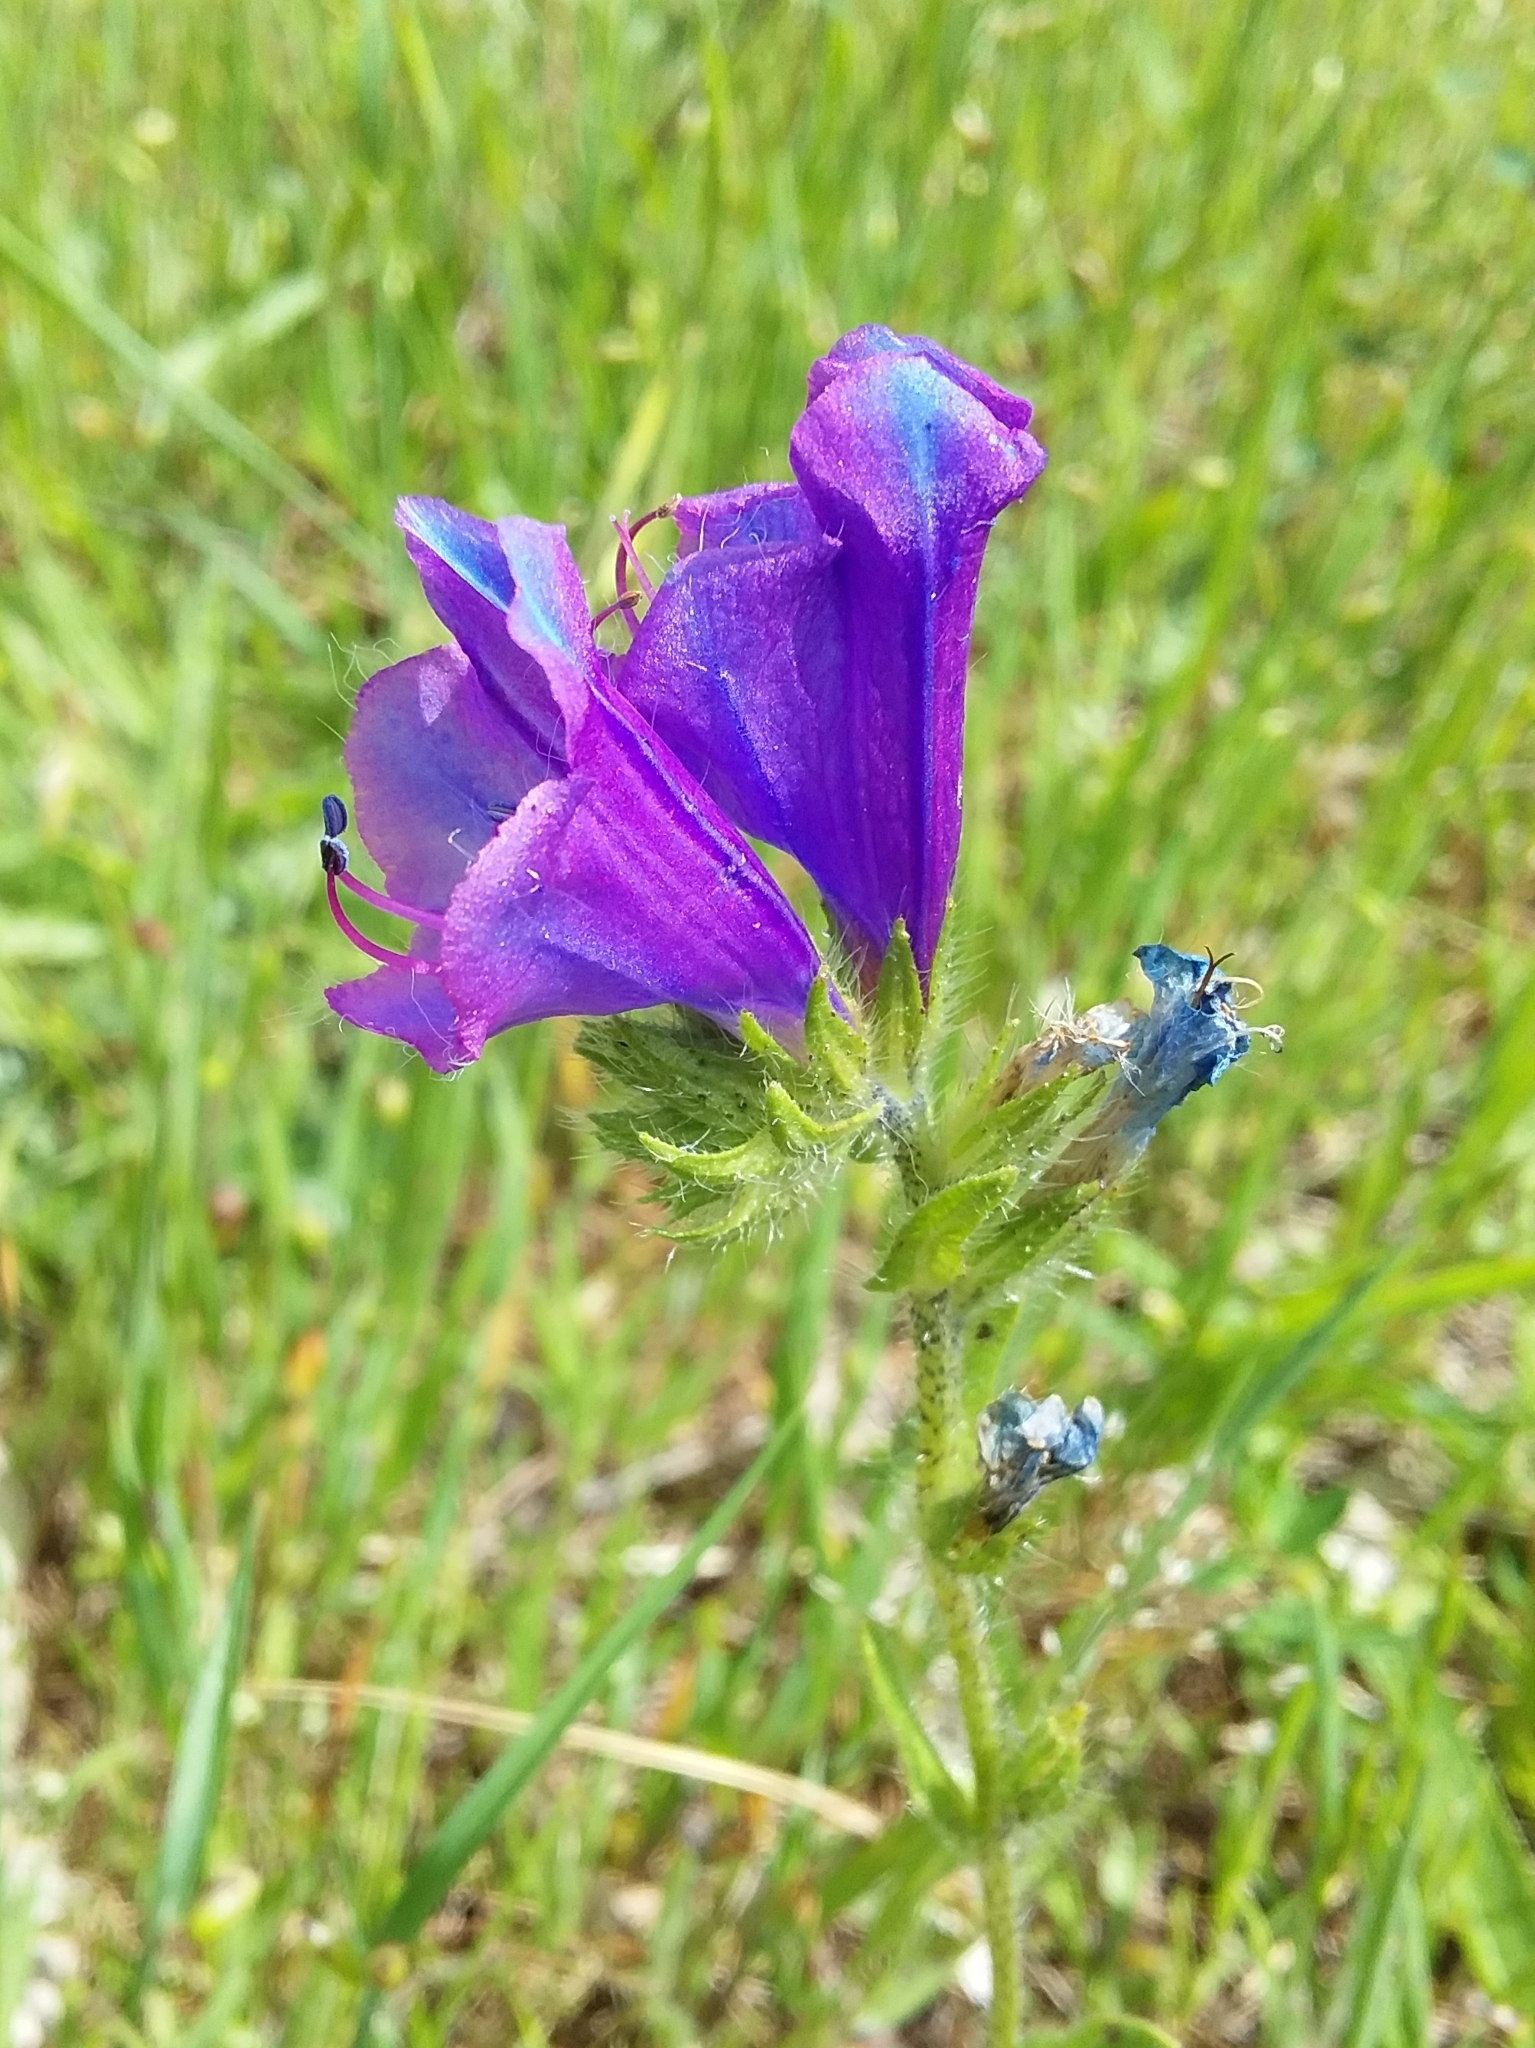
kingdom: Plantae
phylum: Tracheophyta
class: Magnoliopsida
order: Boraginales
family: Boraginaceae
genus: Echium
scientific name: Echium plantagineum
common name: Purple viper's-bugloss
